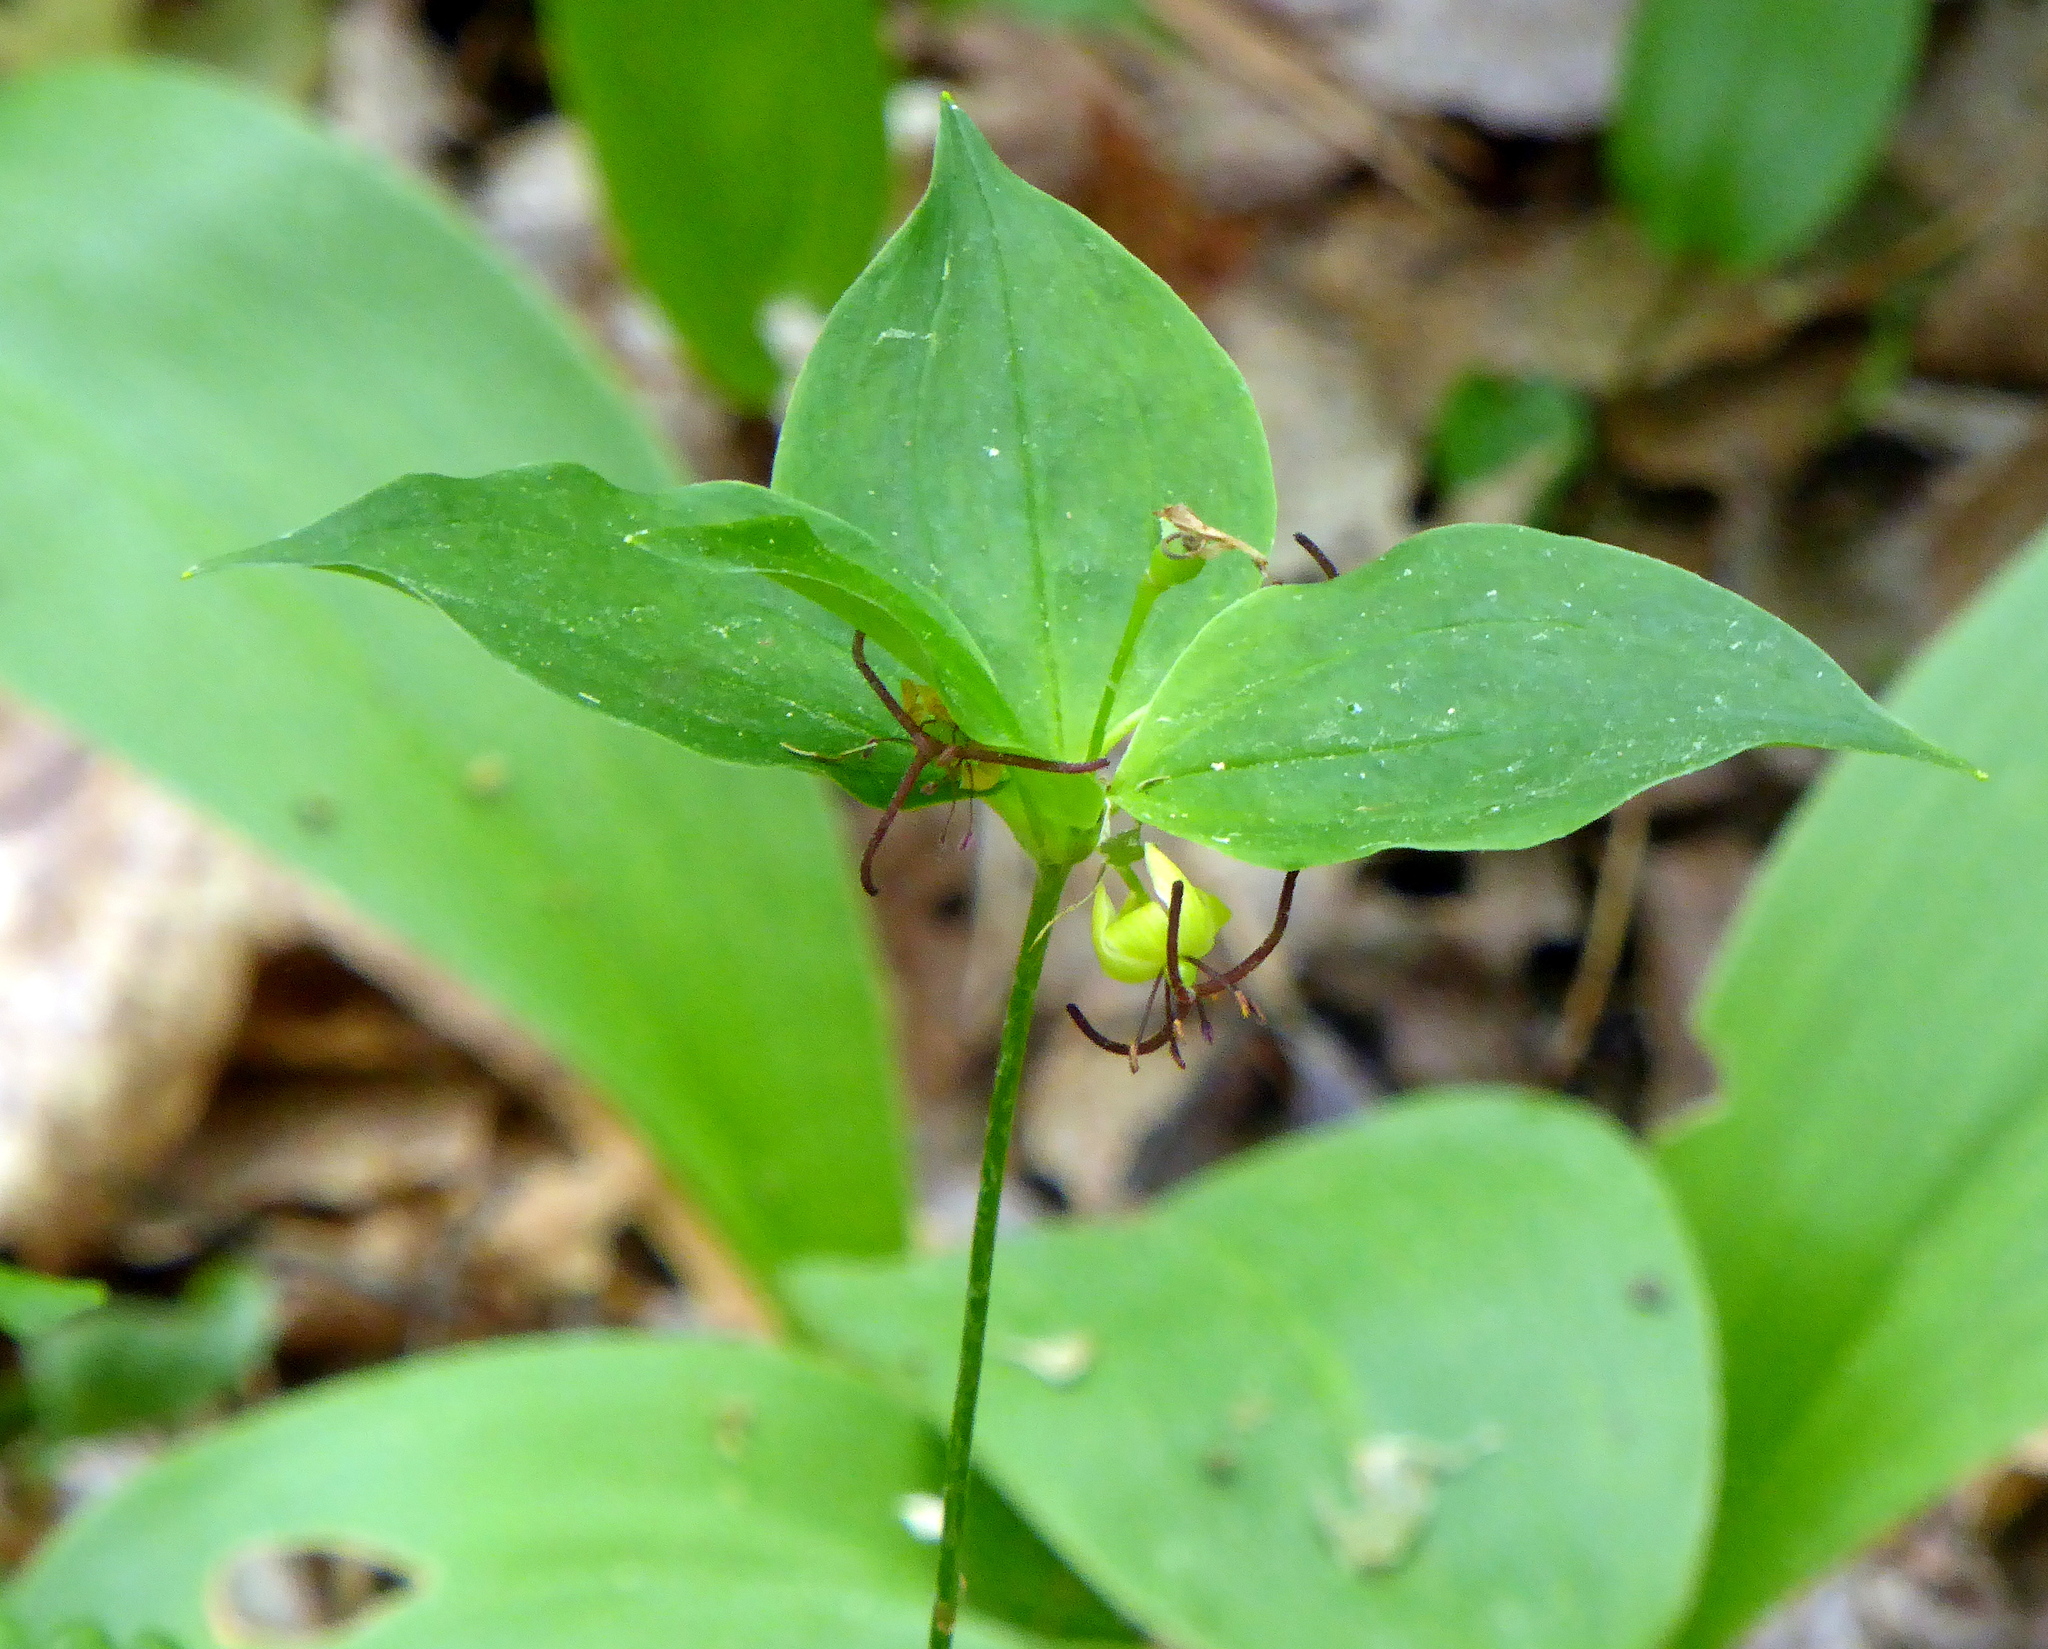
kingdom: Plantae
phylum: Tracheophyta
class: Liliopsida
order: Liliales
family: Liliaceae
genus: Medeola
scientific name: Medeola virginiana
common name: Indian cucumber-root
